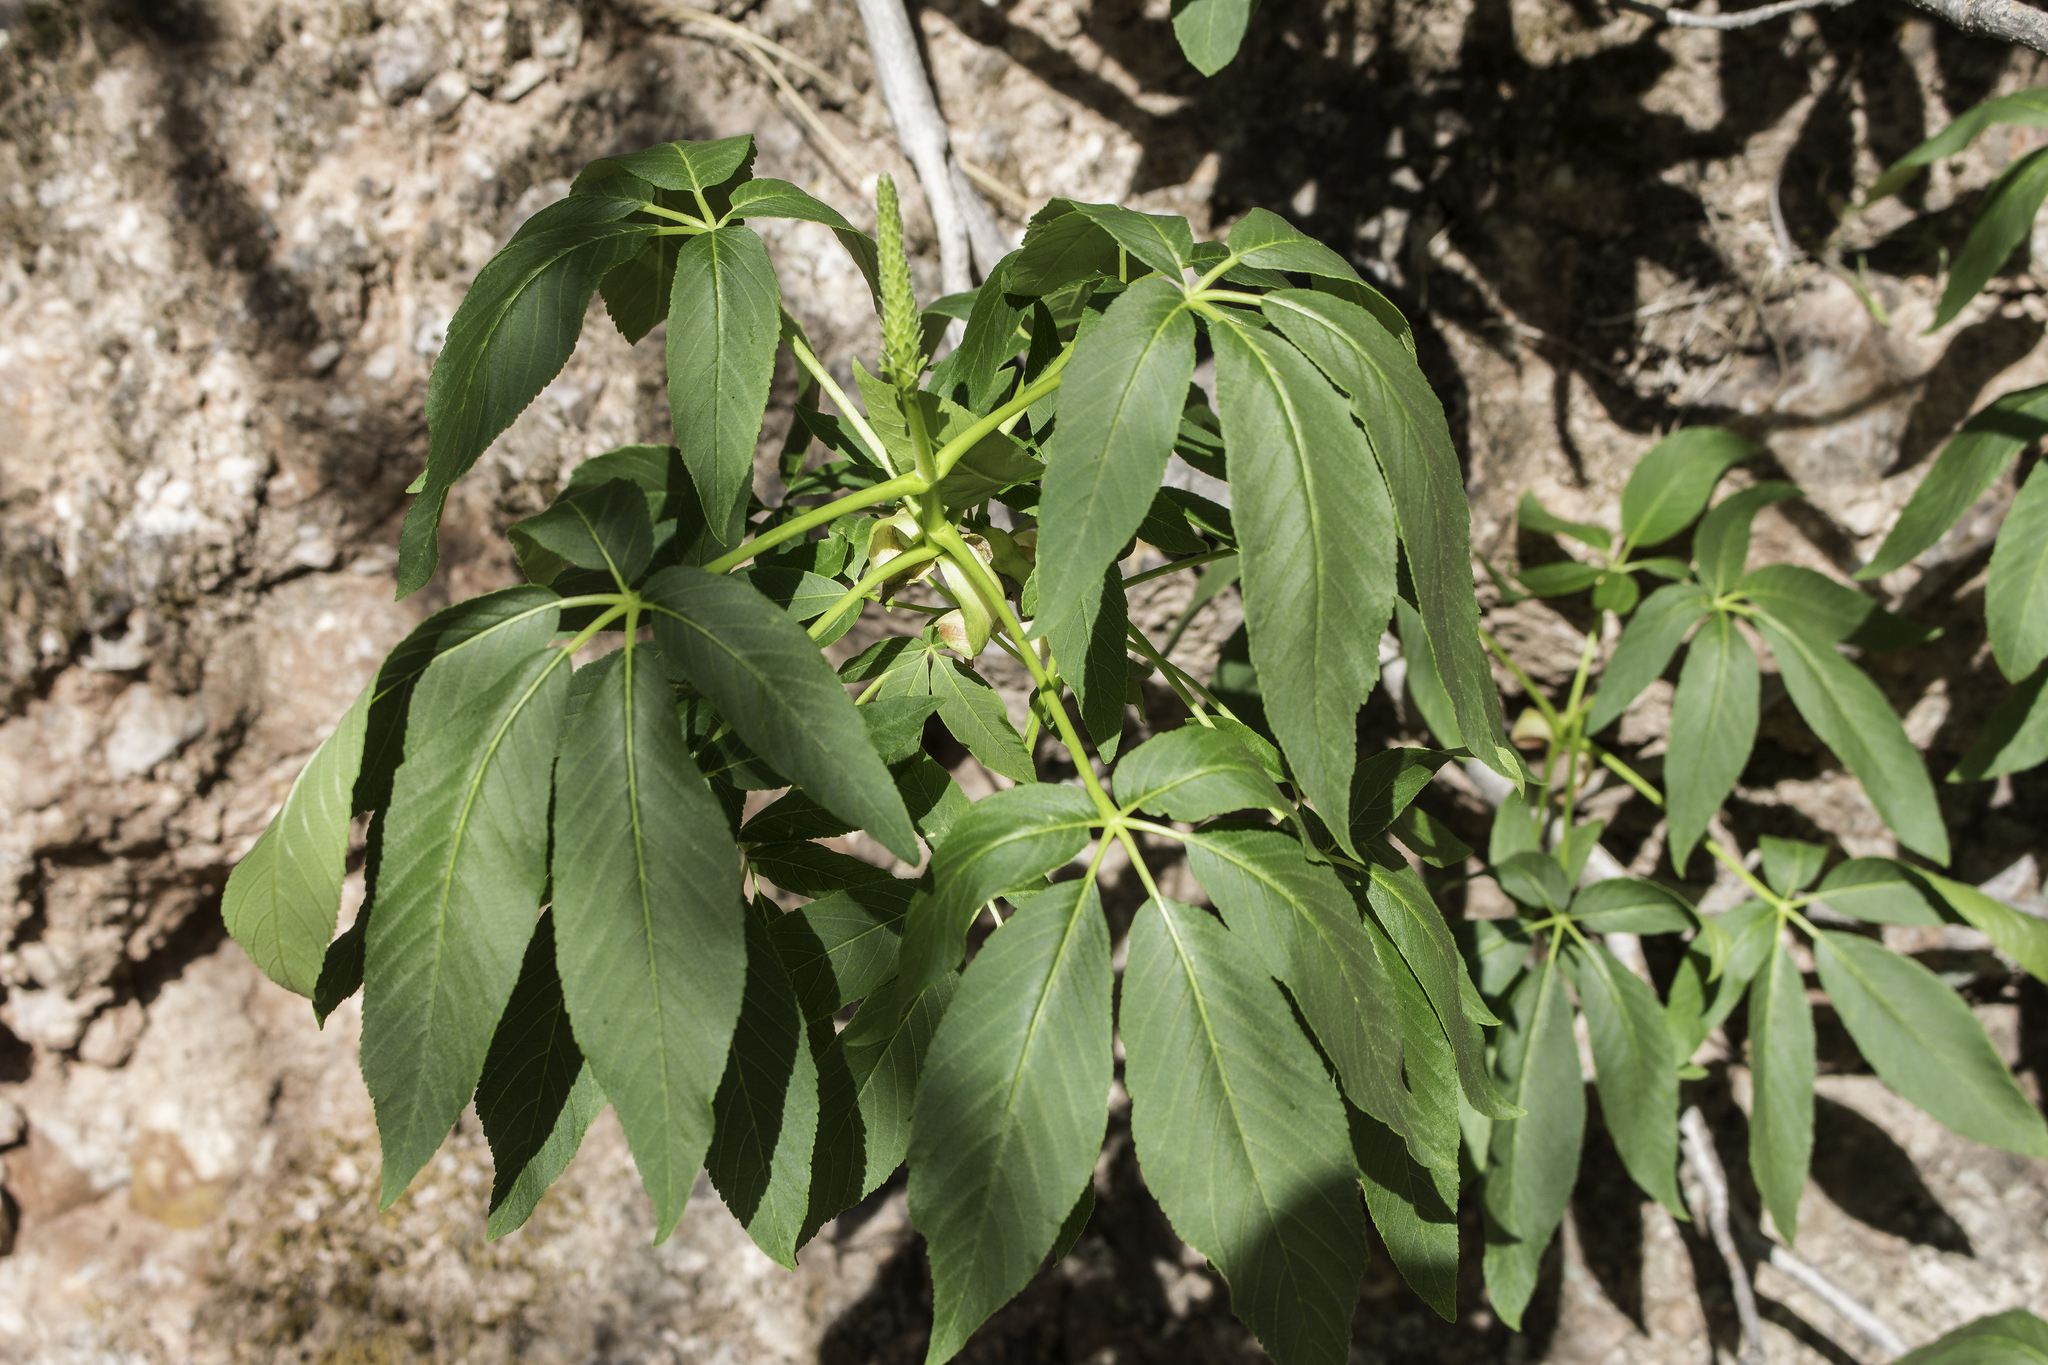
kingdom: Plantae
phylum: Tracheophyta
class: Magnoliopsida
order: Sapindales
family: Sapindaceae
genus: Aesculus
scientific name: Aesculus californica
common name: California buckeye
